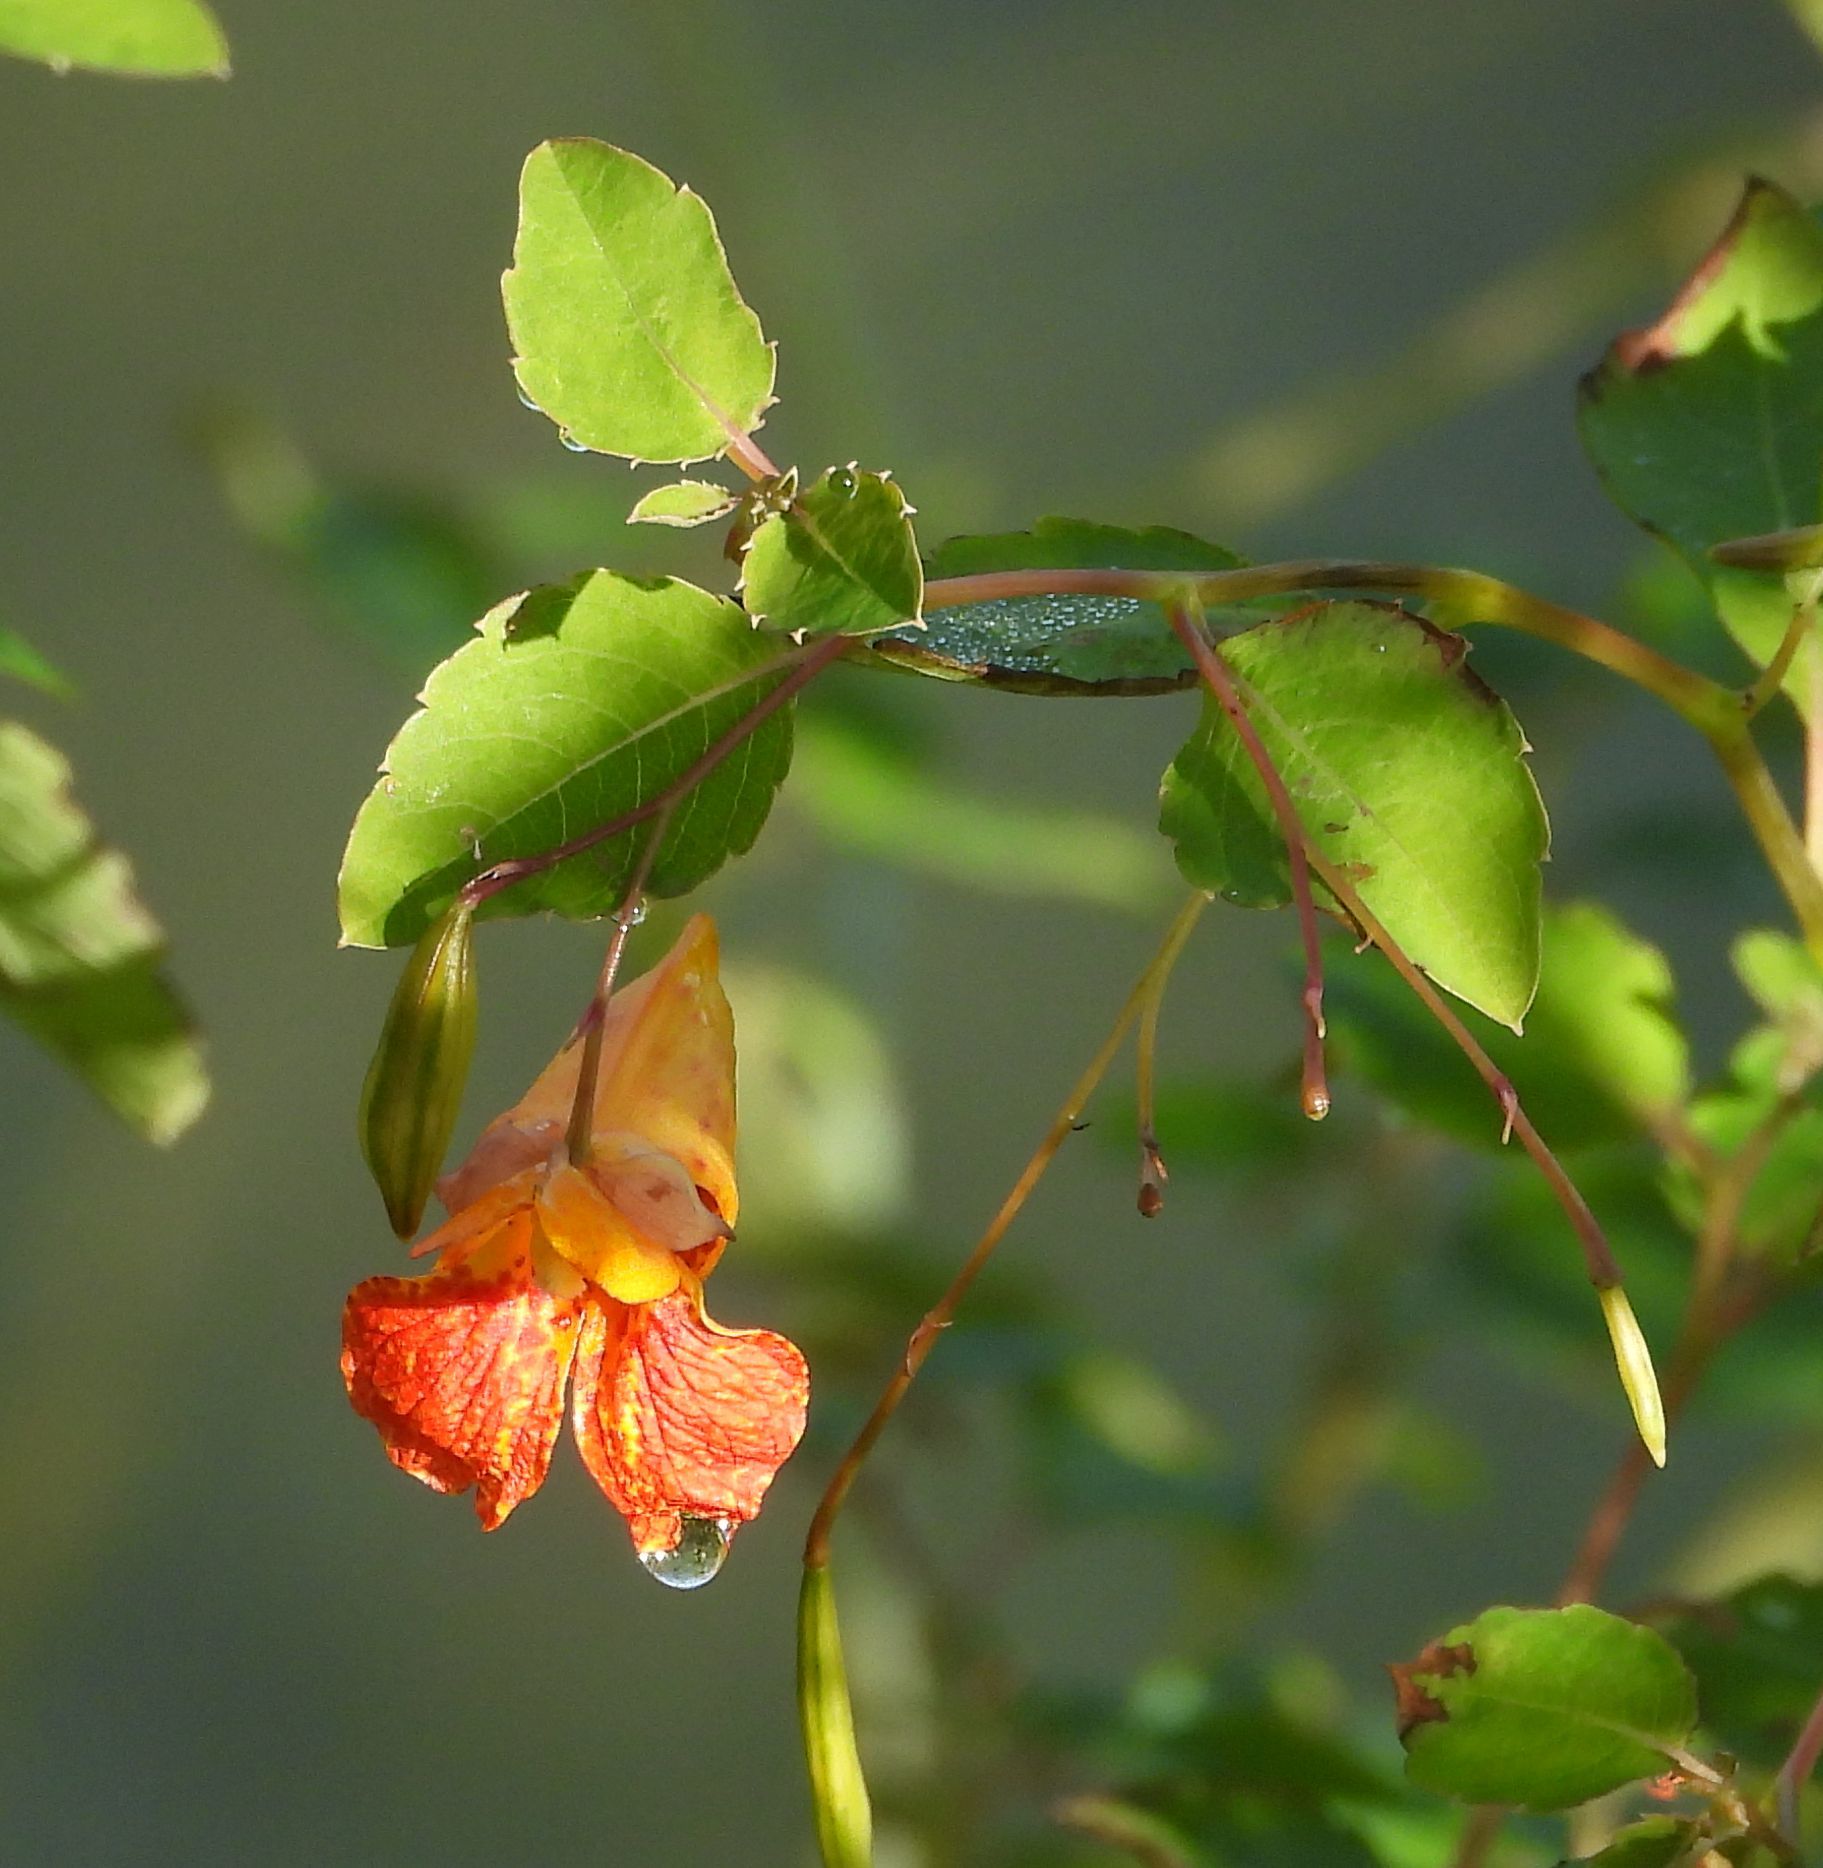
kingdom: Plantae
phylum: Tracheophyta
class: Magnoliopsida
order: Ericales
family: Balsaminaceae
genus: Impatiens
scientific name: Impatiens capensis
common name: Orange balsam
